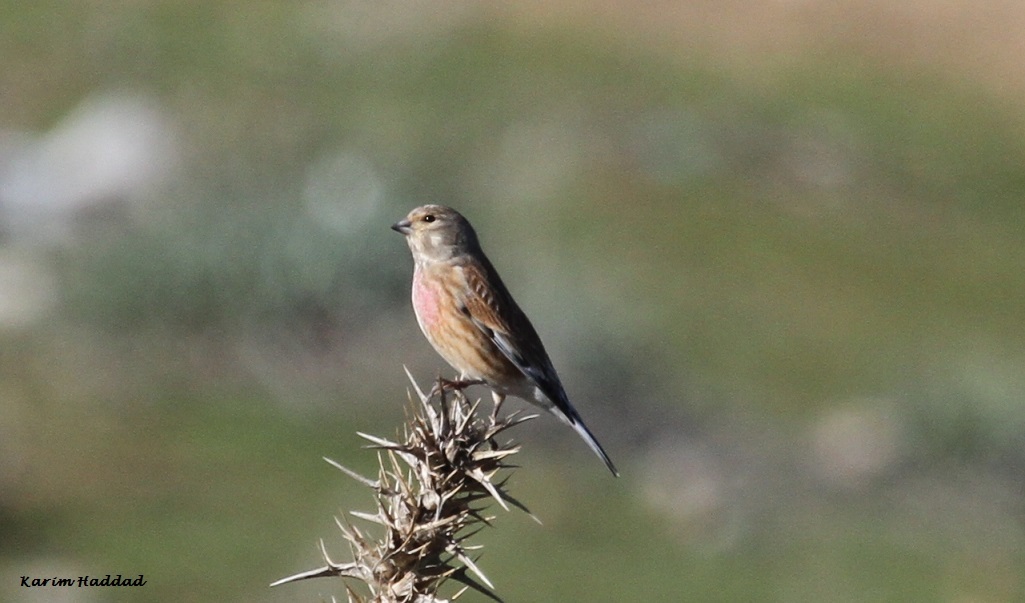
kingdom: Animalia
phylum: Chordata
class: Aves
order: Passeriformes
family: Fringillidae
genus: Linaria
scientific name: Linaria cannabina
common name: Common linnet
